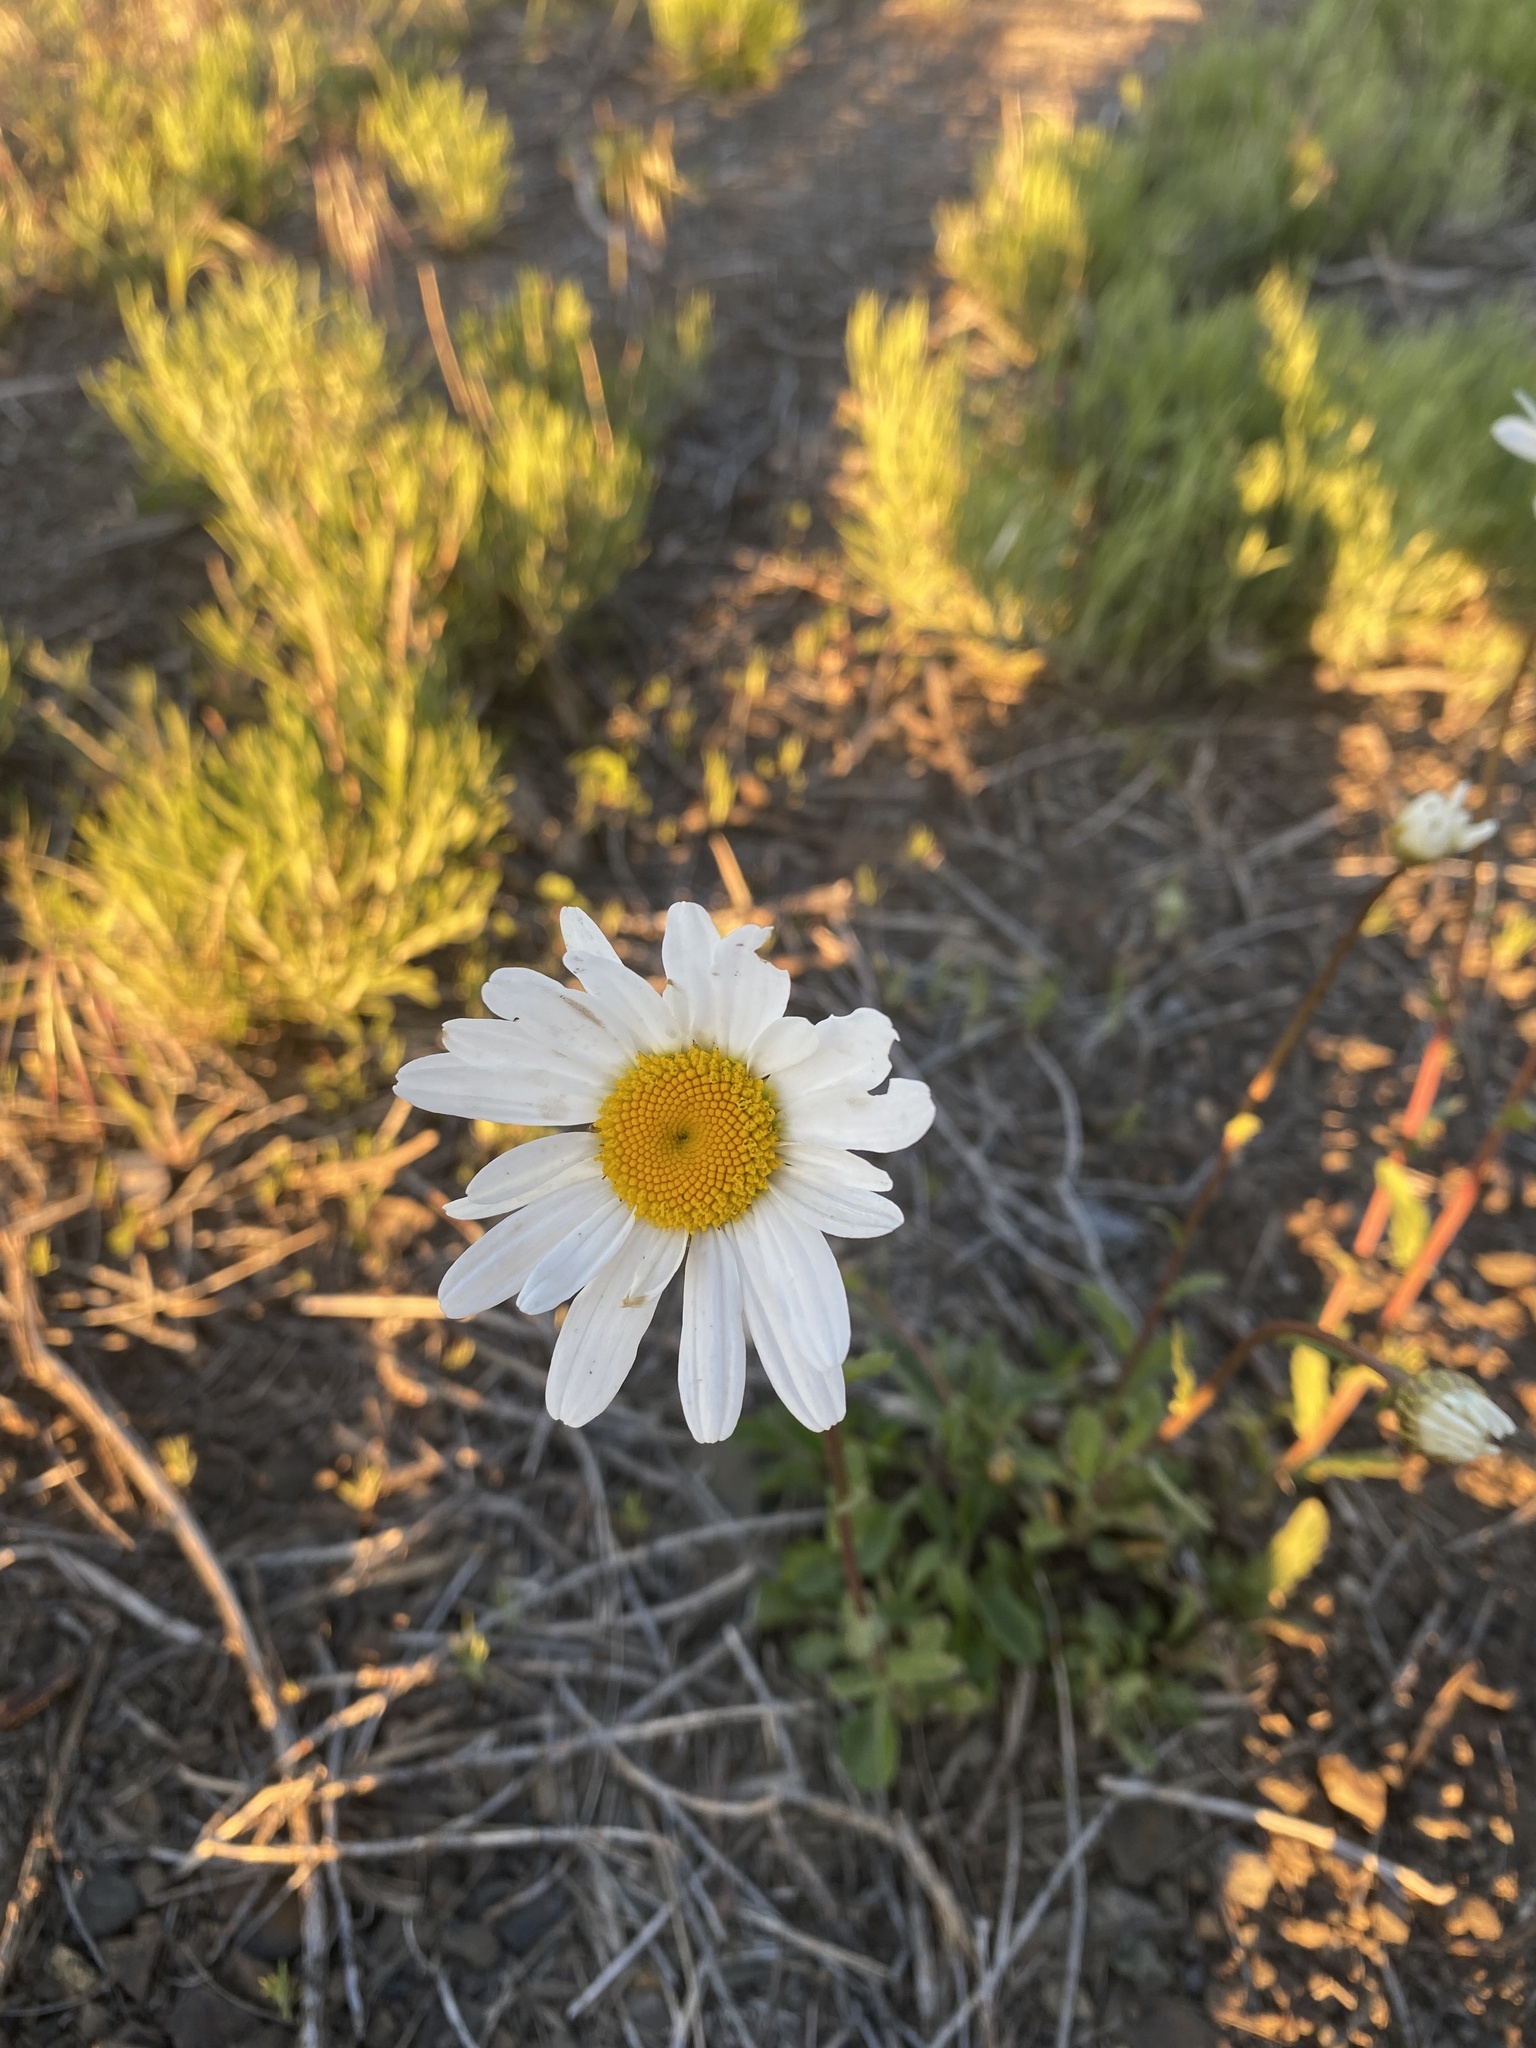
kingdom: Plantae
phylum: Tracheophyta
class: Magnoliopsida
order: Asterales
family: Asteraceae
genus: Leucanthemum
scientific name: Leucanthemum vulgare
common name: Oxeye daisy
